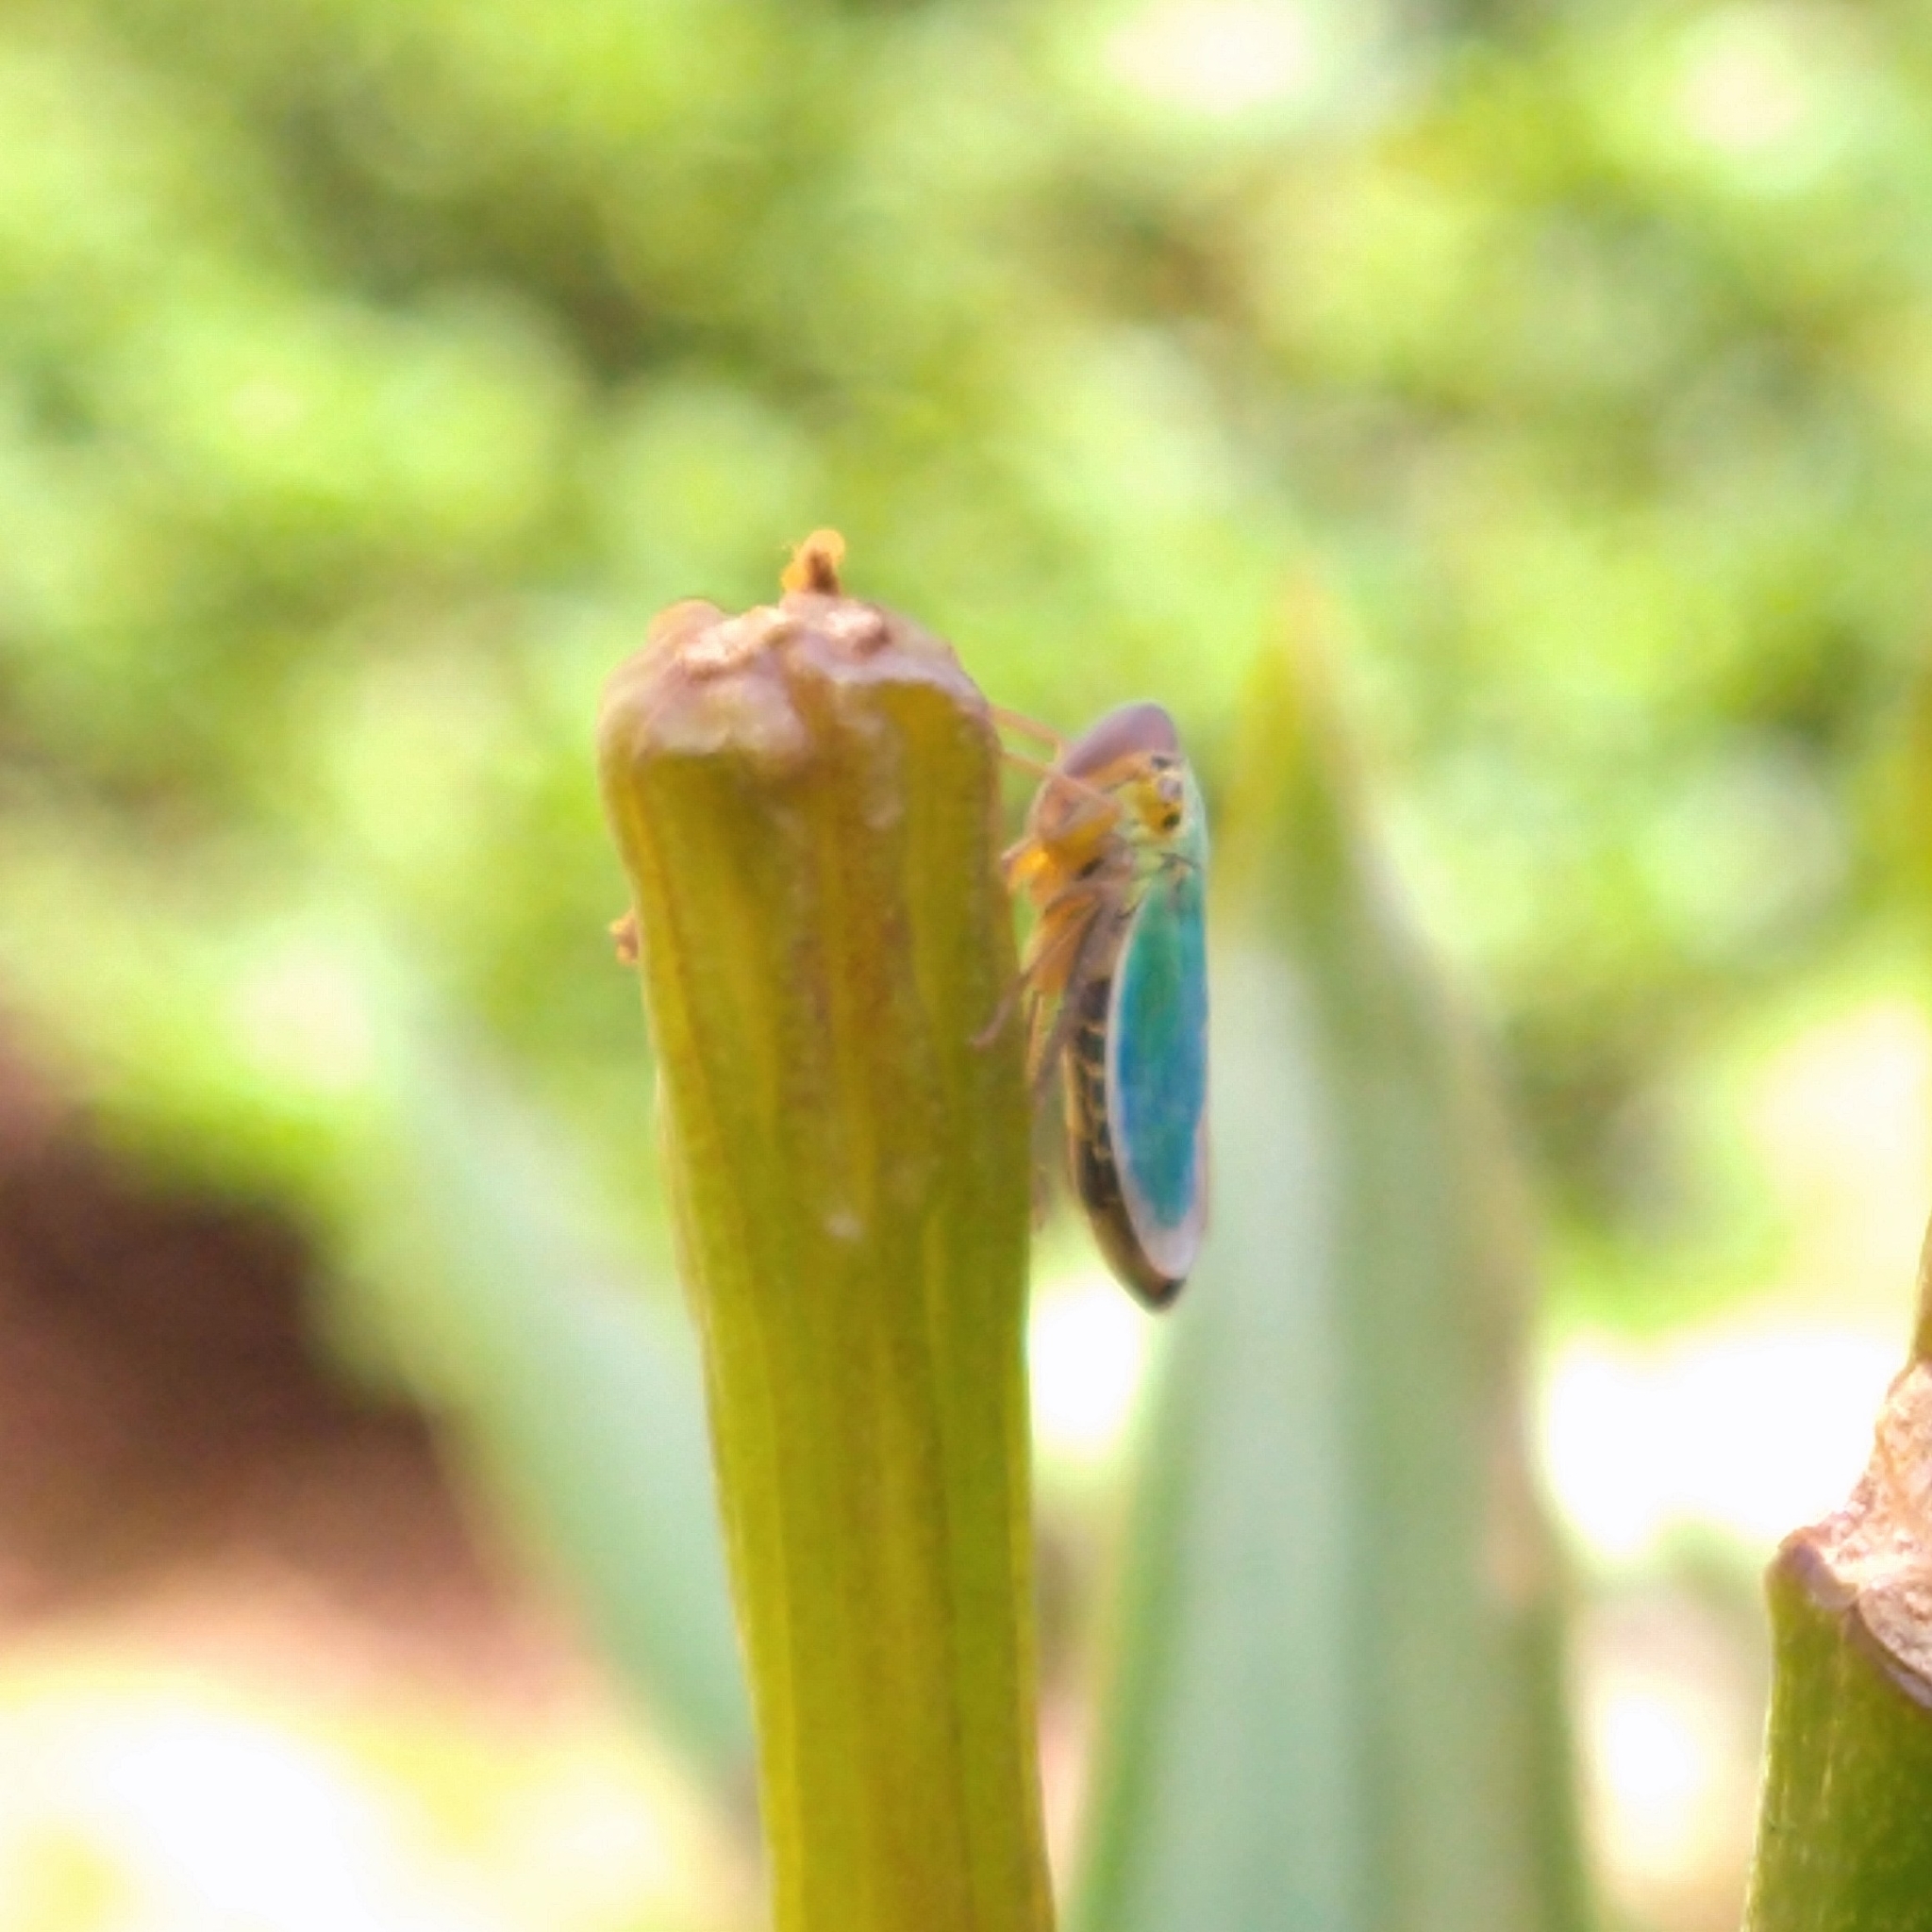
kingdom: Animalia
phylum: Arthropoda
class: Insecta
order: Hemiptera
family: Cicadellidae
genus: Cicadella
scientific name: Cicadella viridis
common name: Leafhopper
